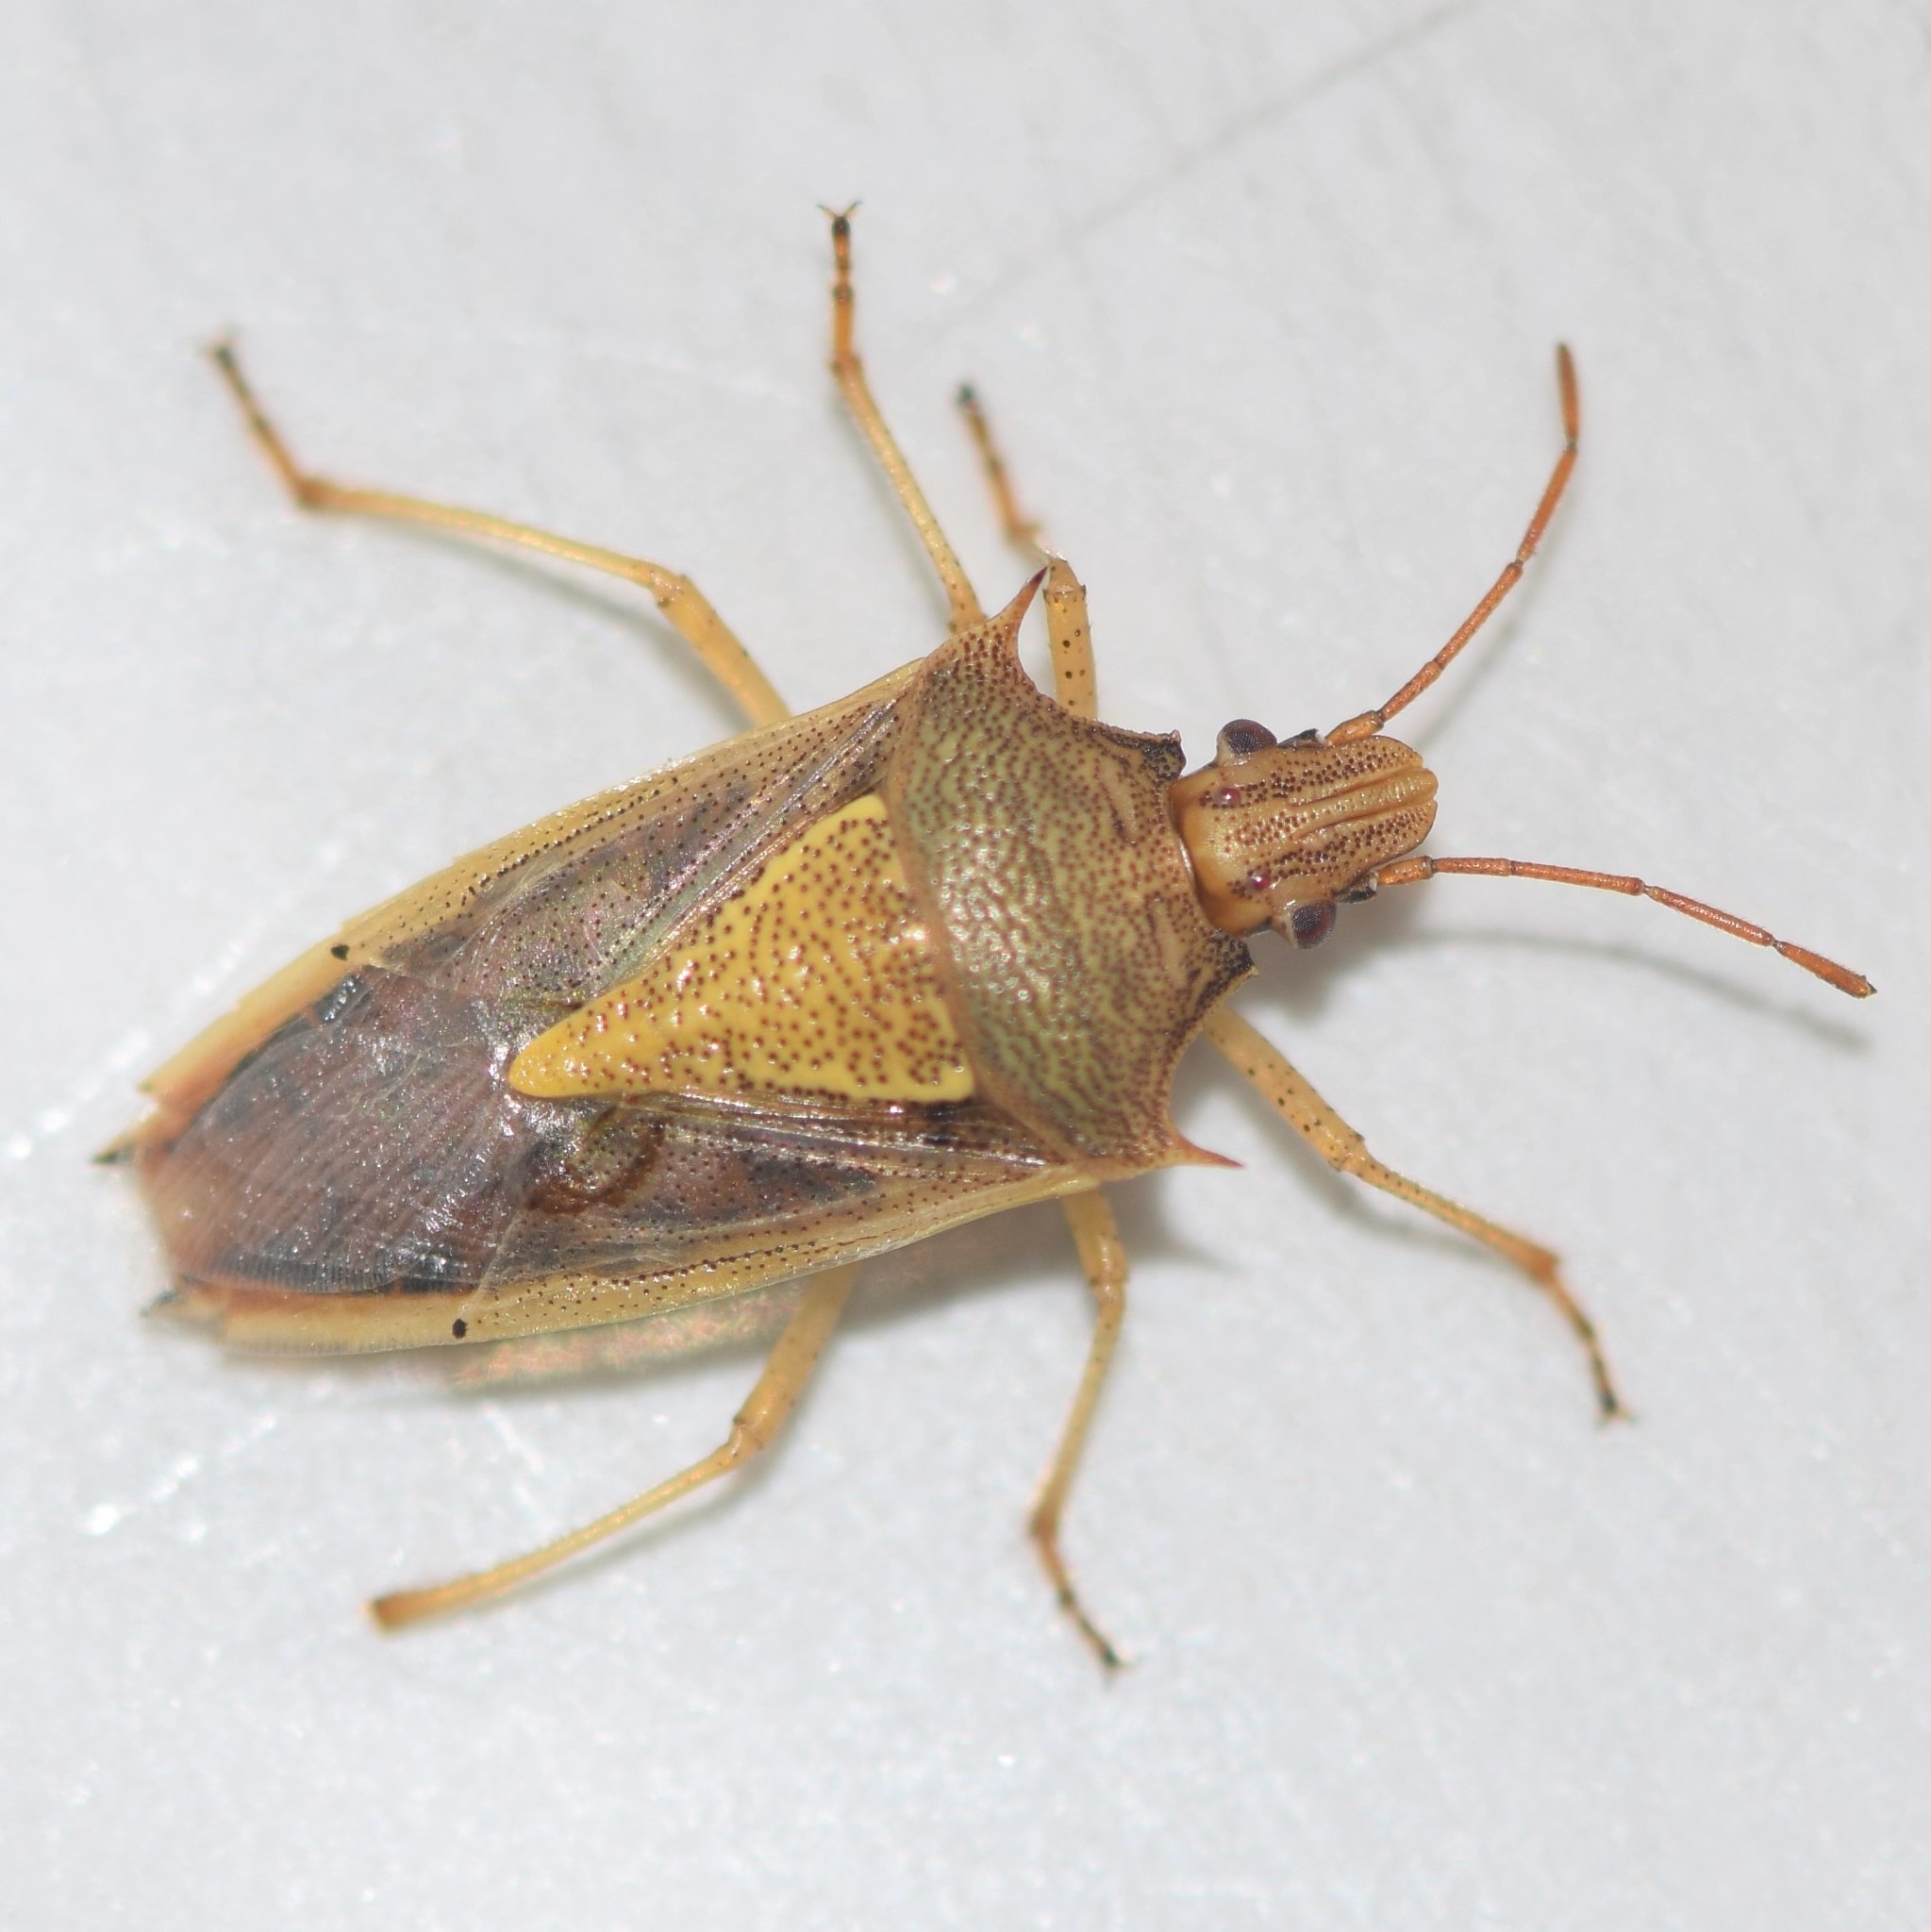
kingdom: Animalia
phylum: Arthropoda
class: Insecta
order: Hemiptera
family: Pentatomidae
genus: Oebalus
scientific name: Oebalus pugnax
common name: Rice stink bug
